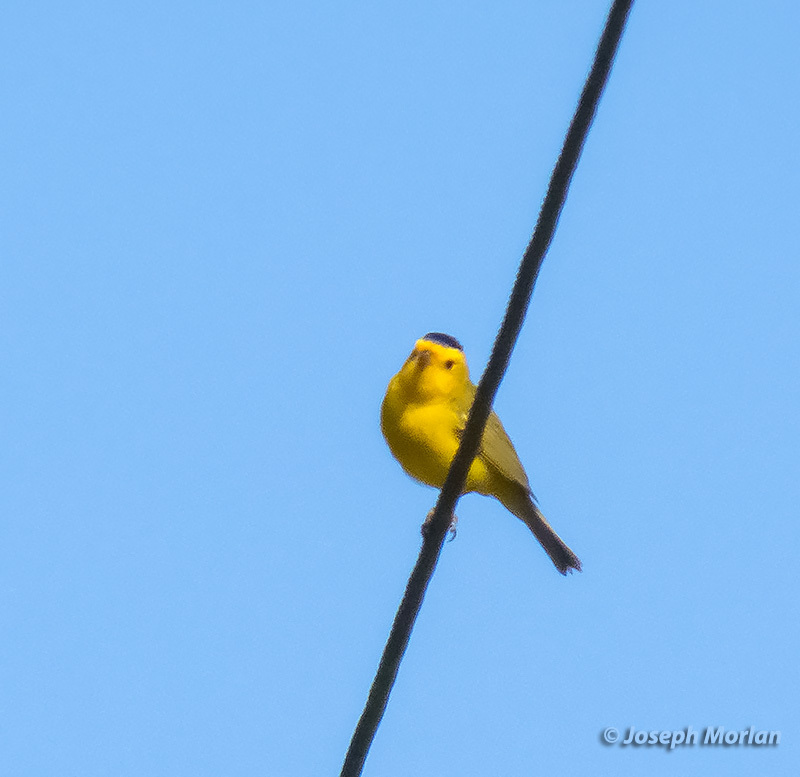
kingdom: Animalia
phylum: Chordata
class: Aves
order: Passeriformes
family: Parulidae
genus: Cardellina
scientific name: Cardellina pusilla
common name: Wilson's warbler
